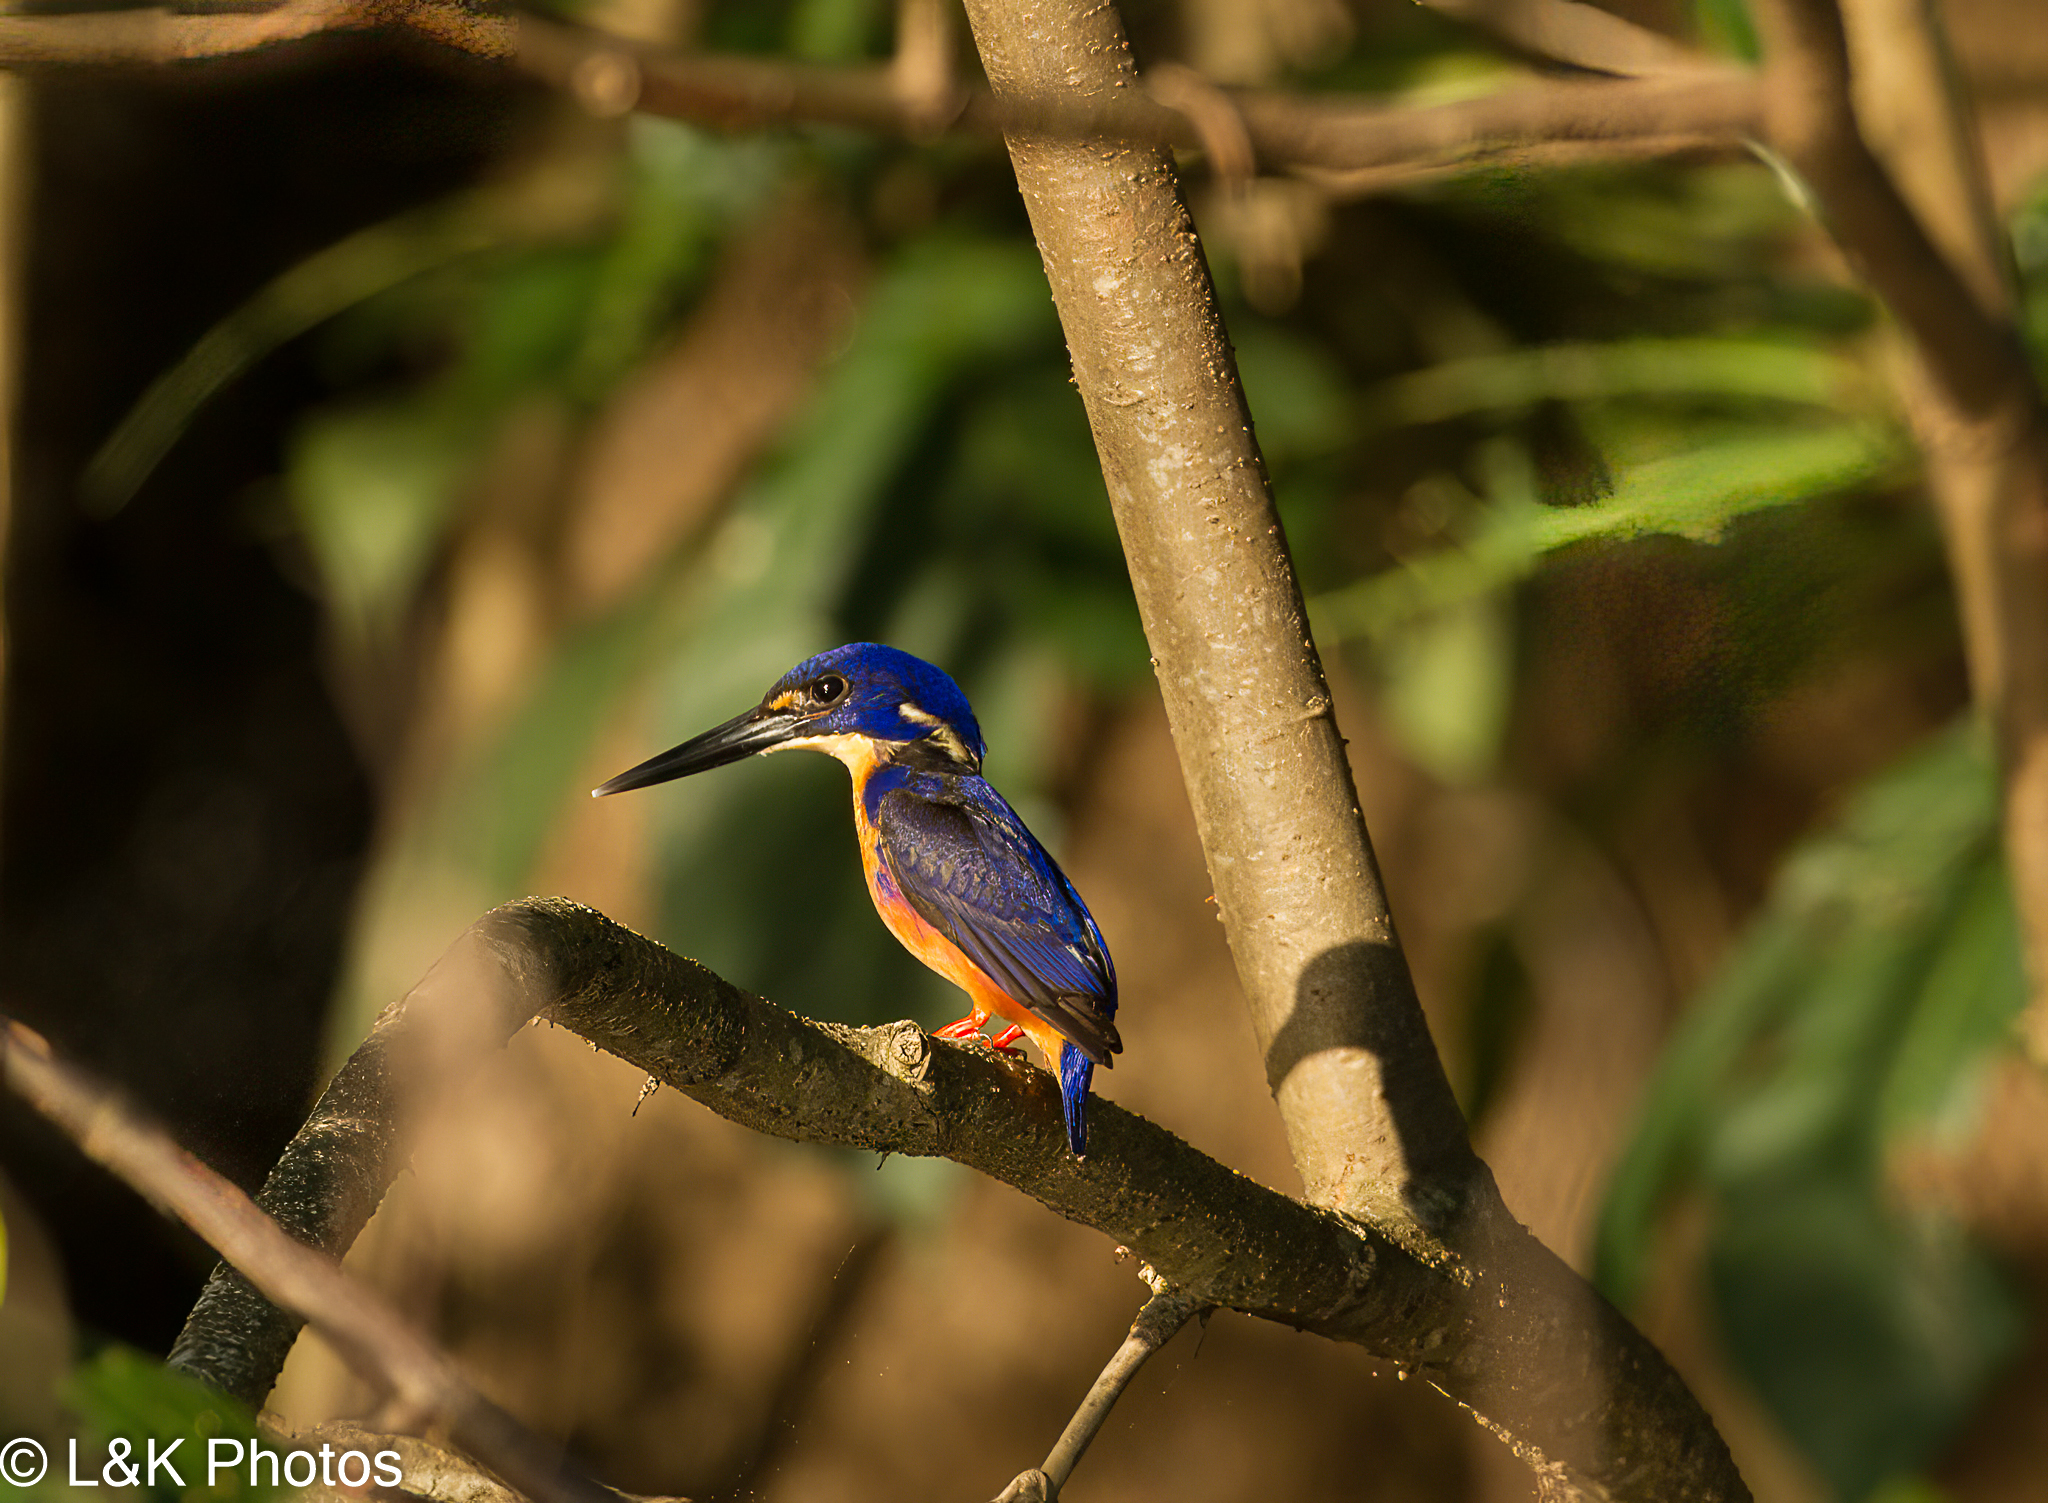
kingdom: Animalia
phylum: Chordata
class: Aves
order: Coraciiformes
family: Alcedinidae
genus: Ceyx
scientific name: Ceyx azureus
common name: Azure kingfisher
